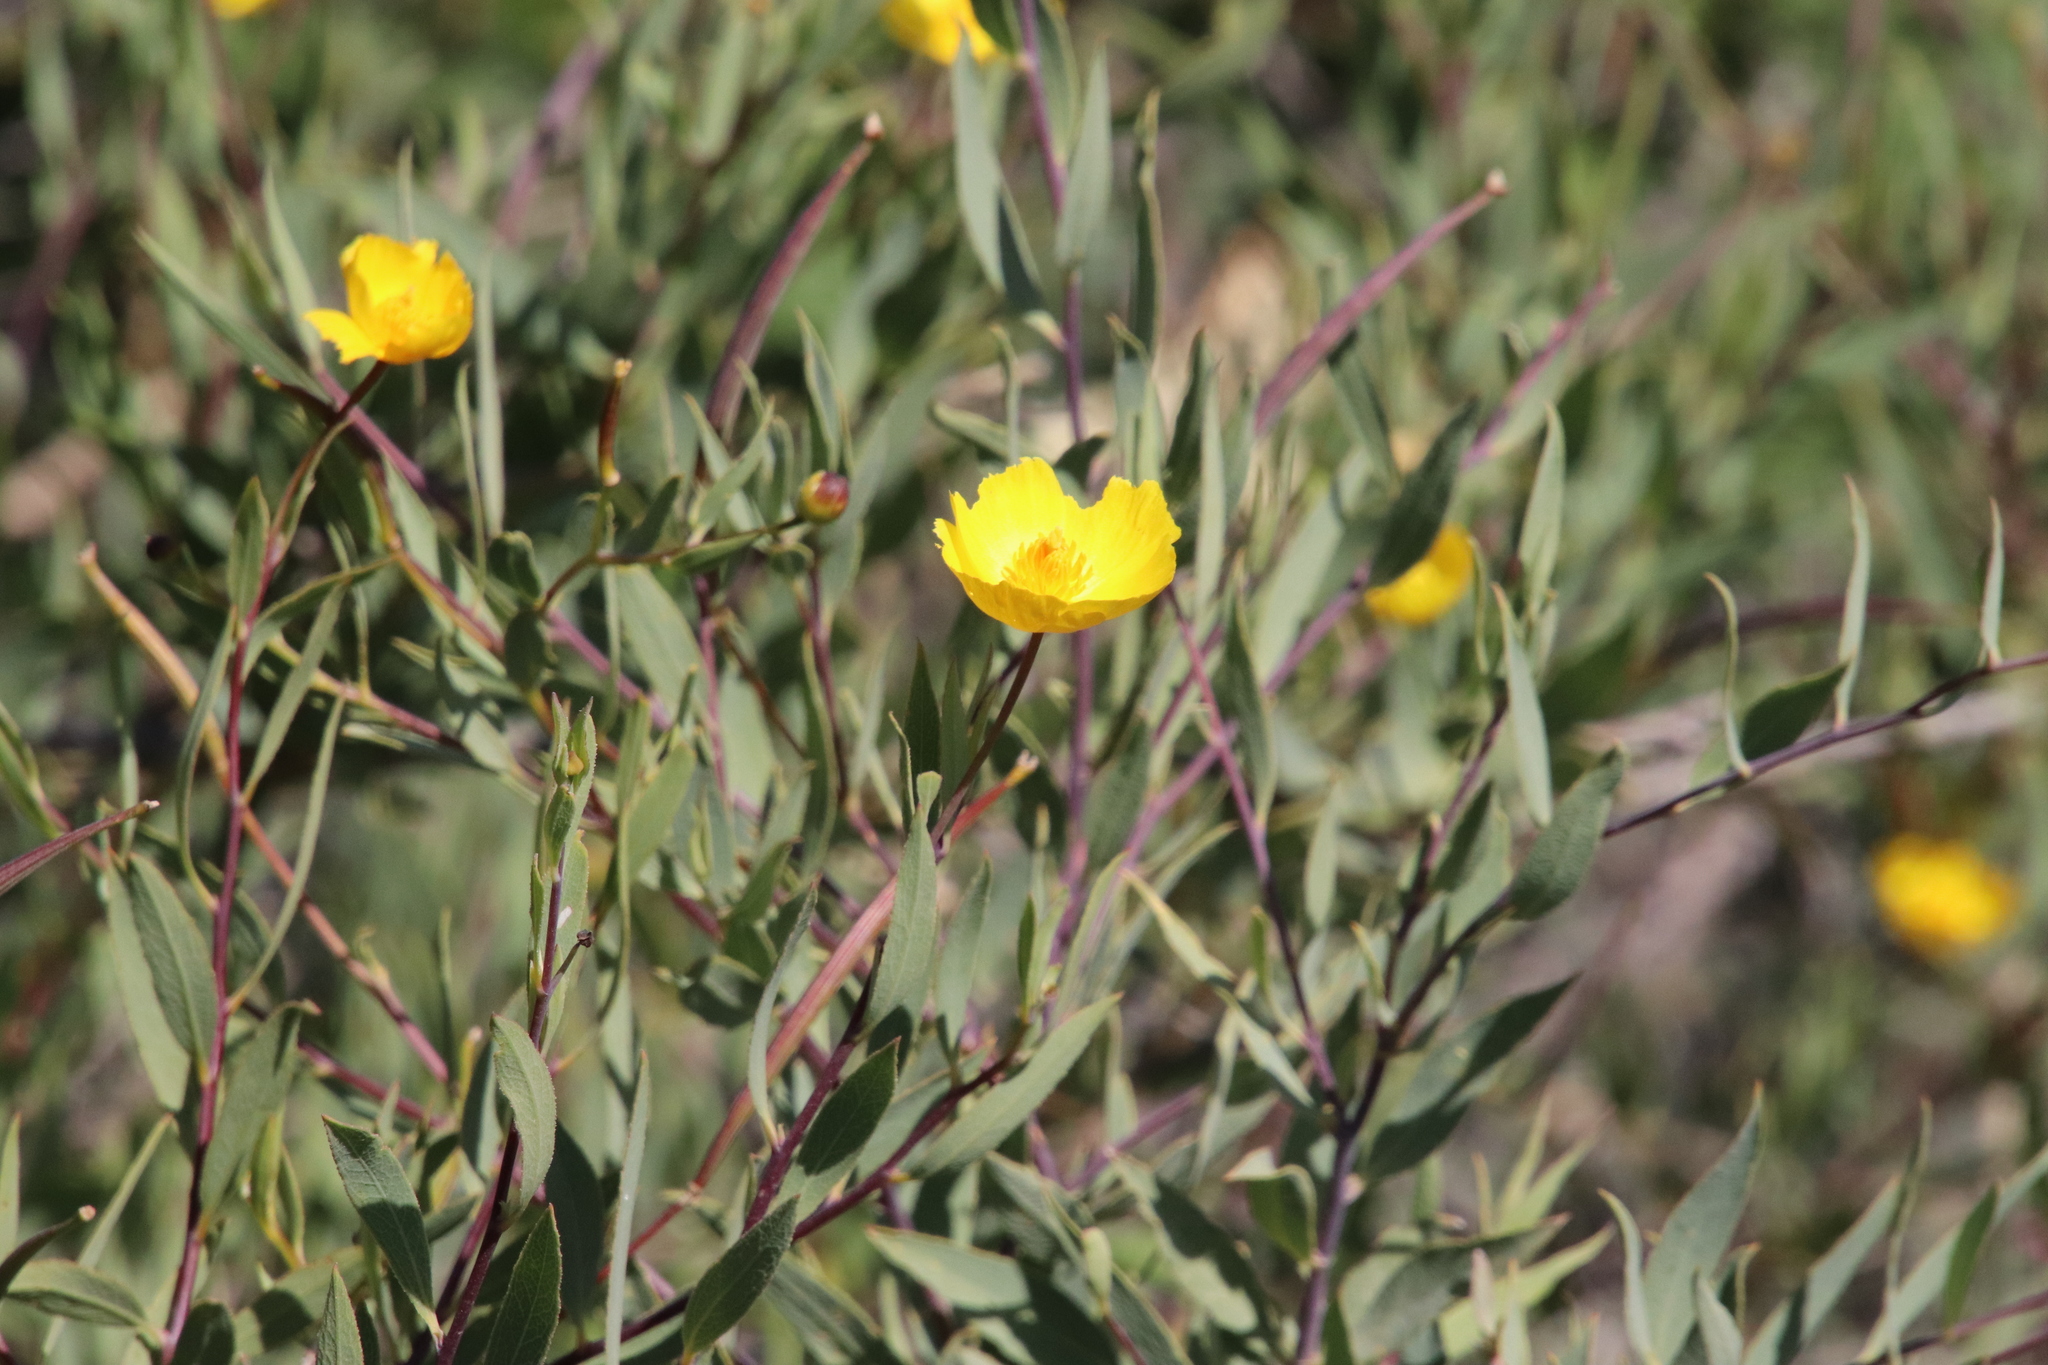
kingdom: Plantae
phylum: Tracheophyta
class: Magnoliopsida
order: Ranunculales
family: Papaveraceae
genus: Dendromecon
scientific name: Dendromecon rigida
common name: Tree poppy
